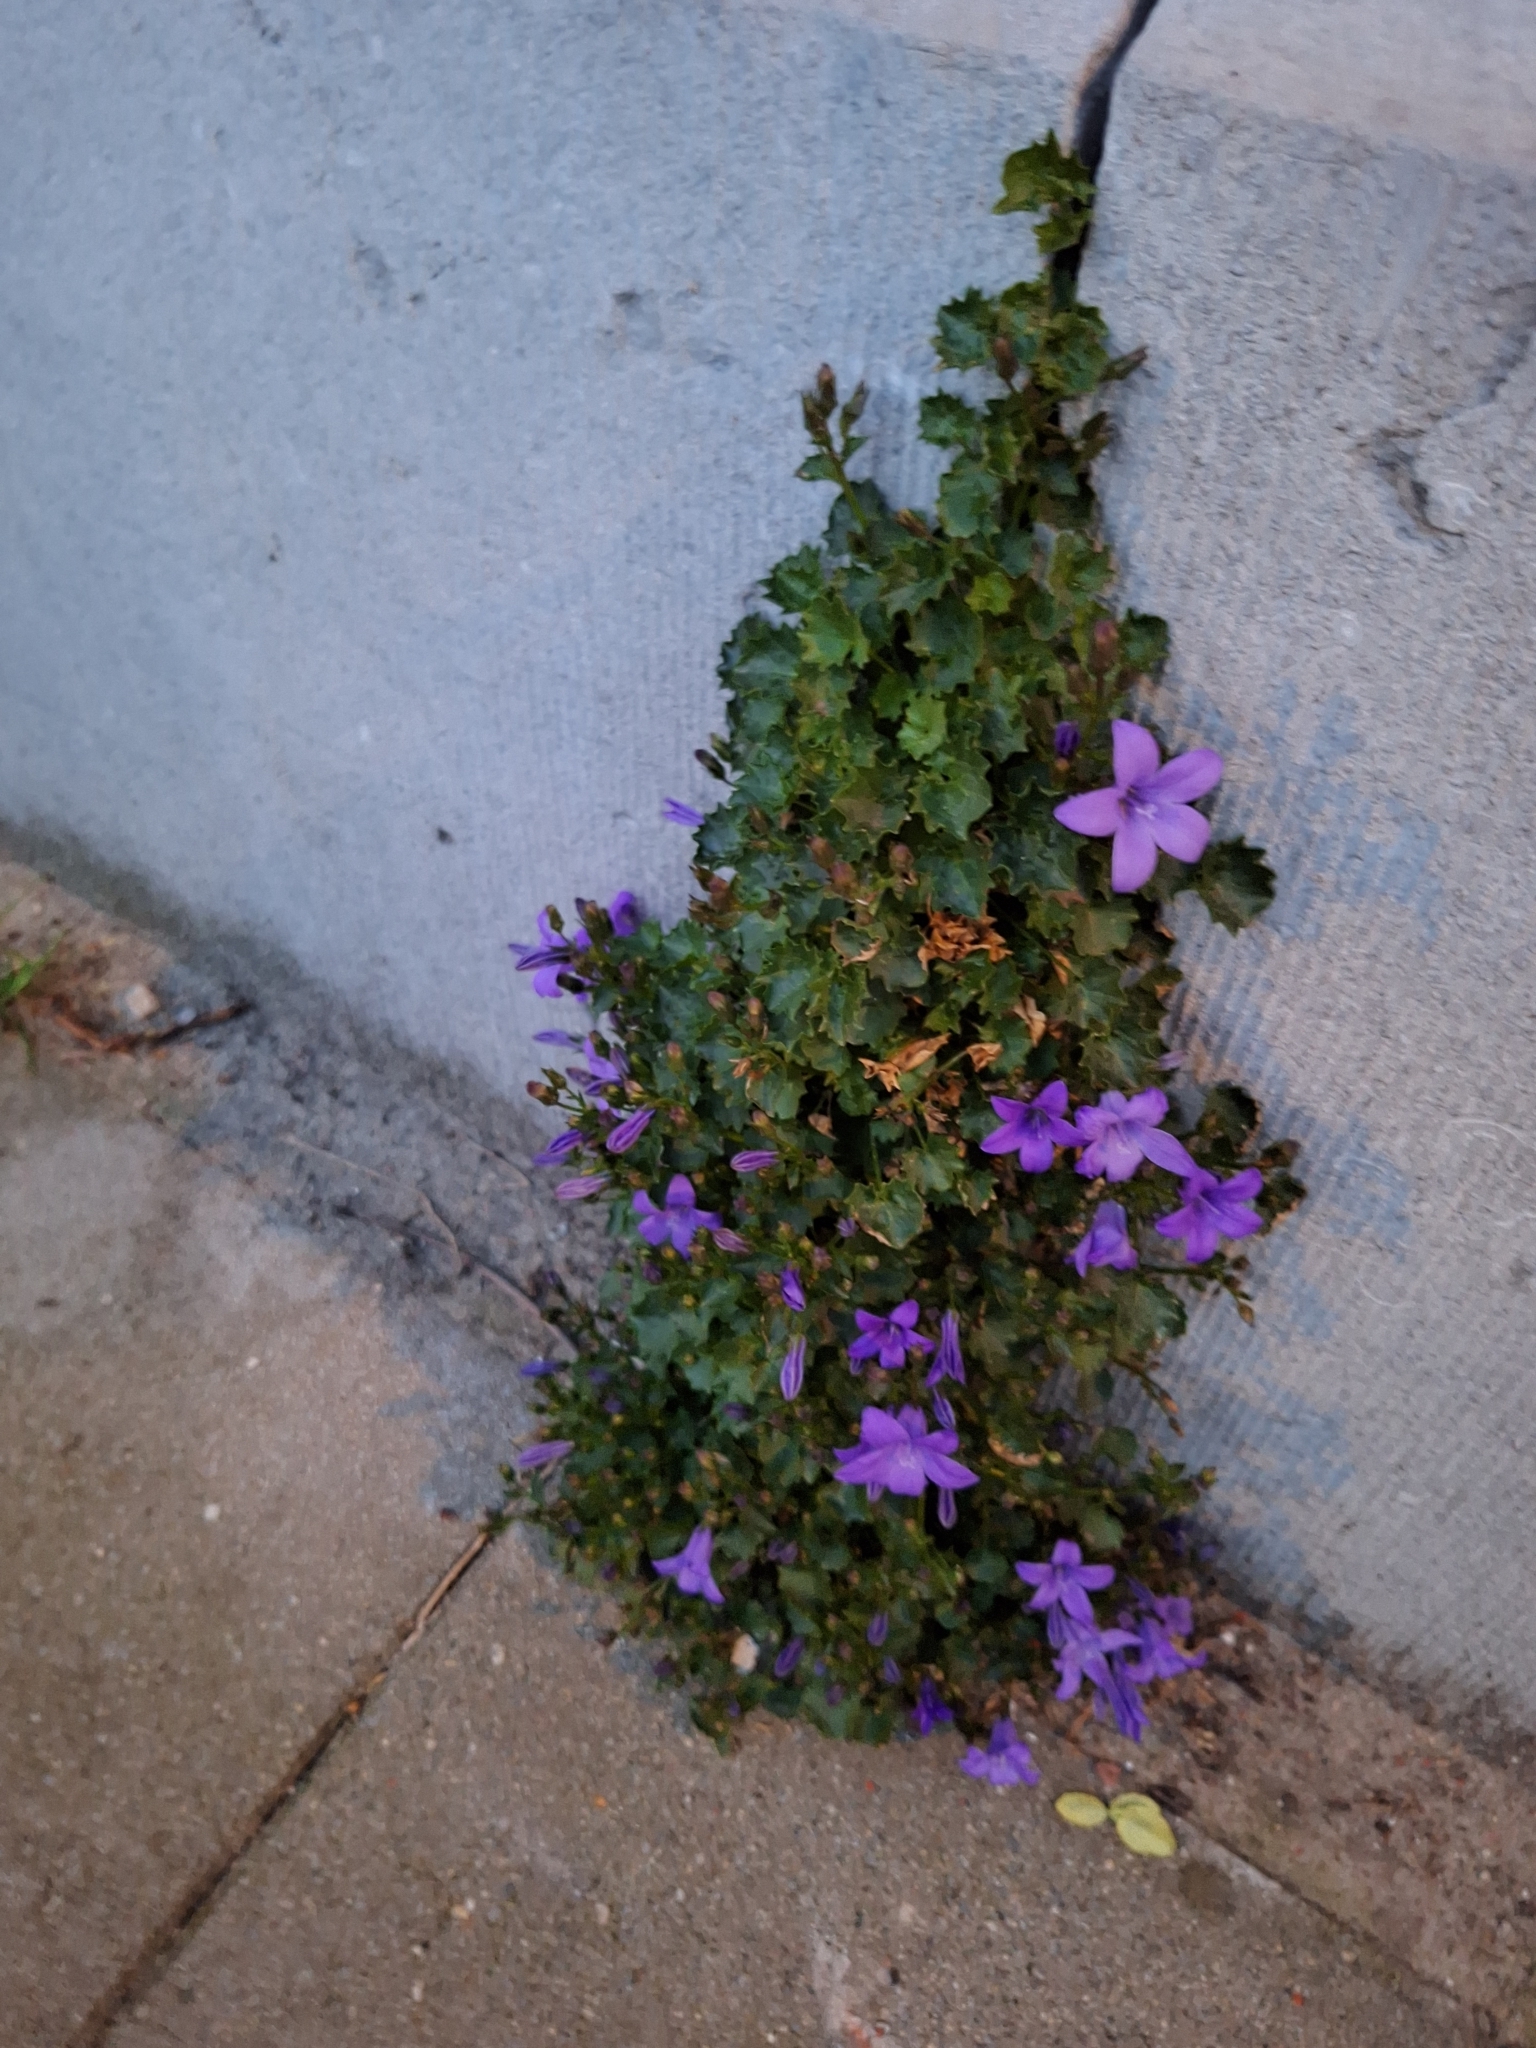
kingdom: Plantae
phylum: Tracheophyta
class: Magnoliopsida
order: Asterales
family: Campanulaceae
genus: Campanula
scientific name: Campanula portenschlagiana
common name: Adria bellflower
